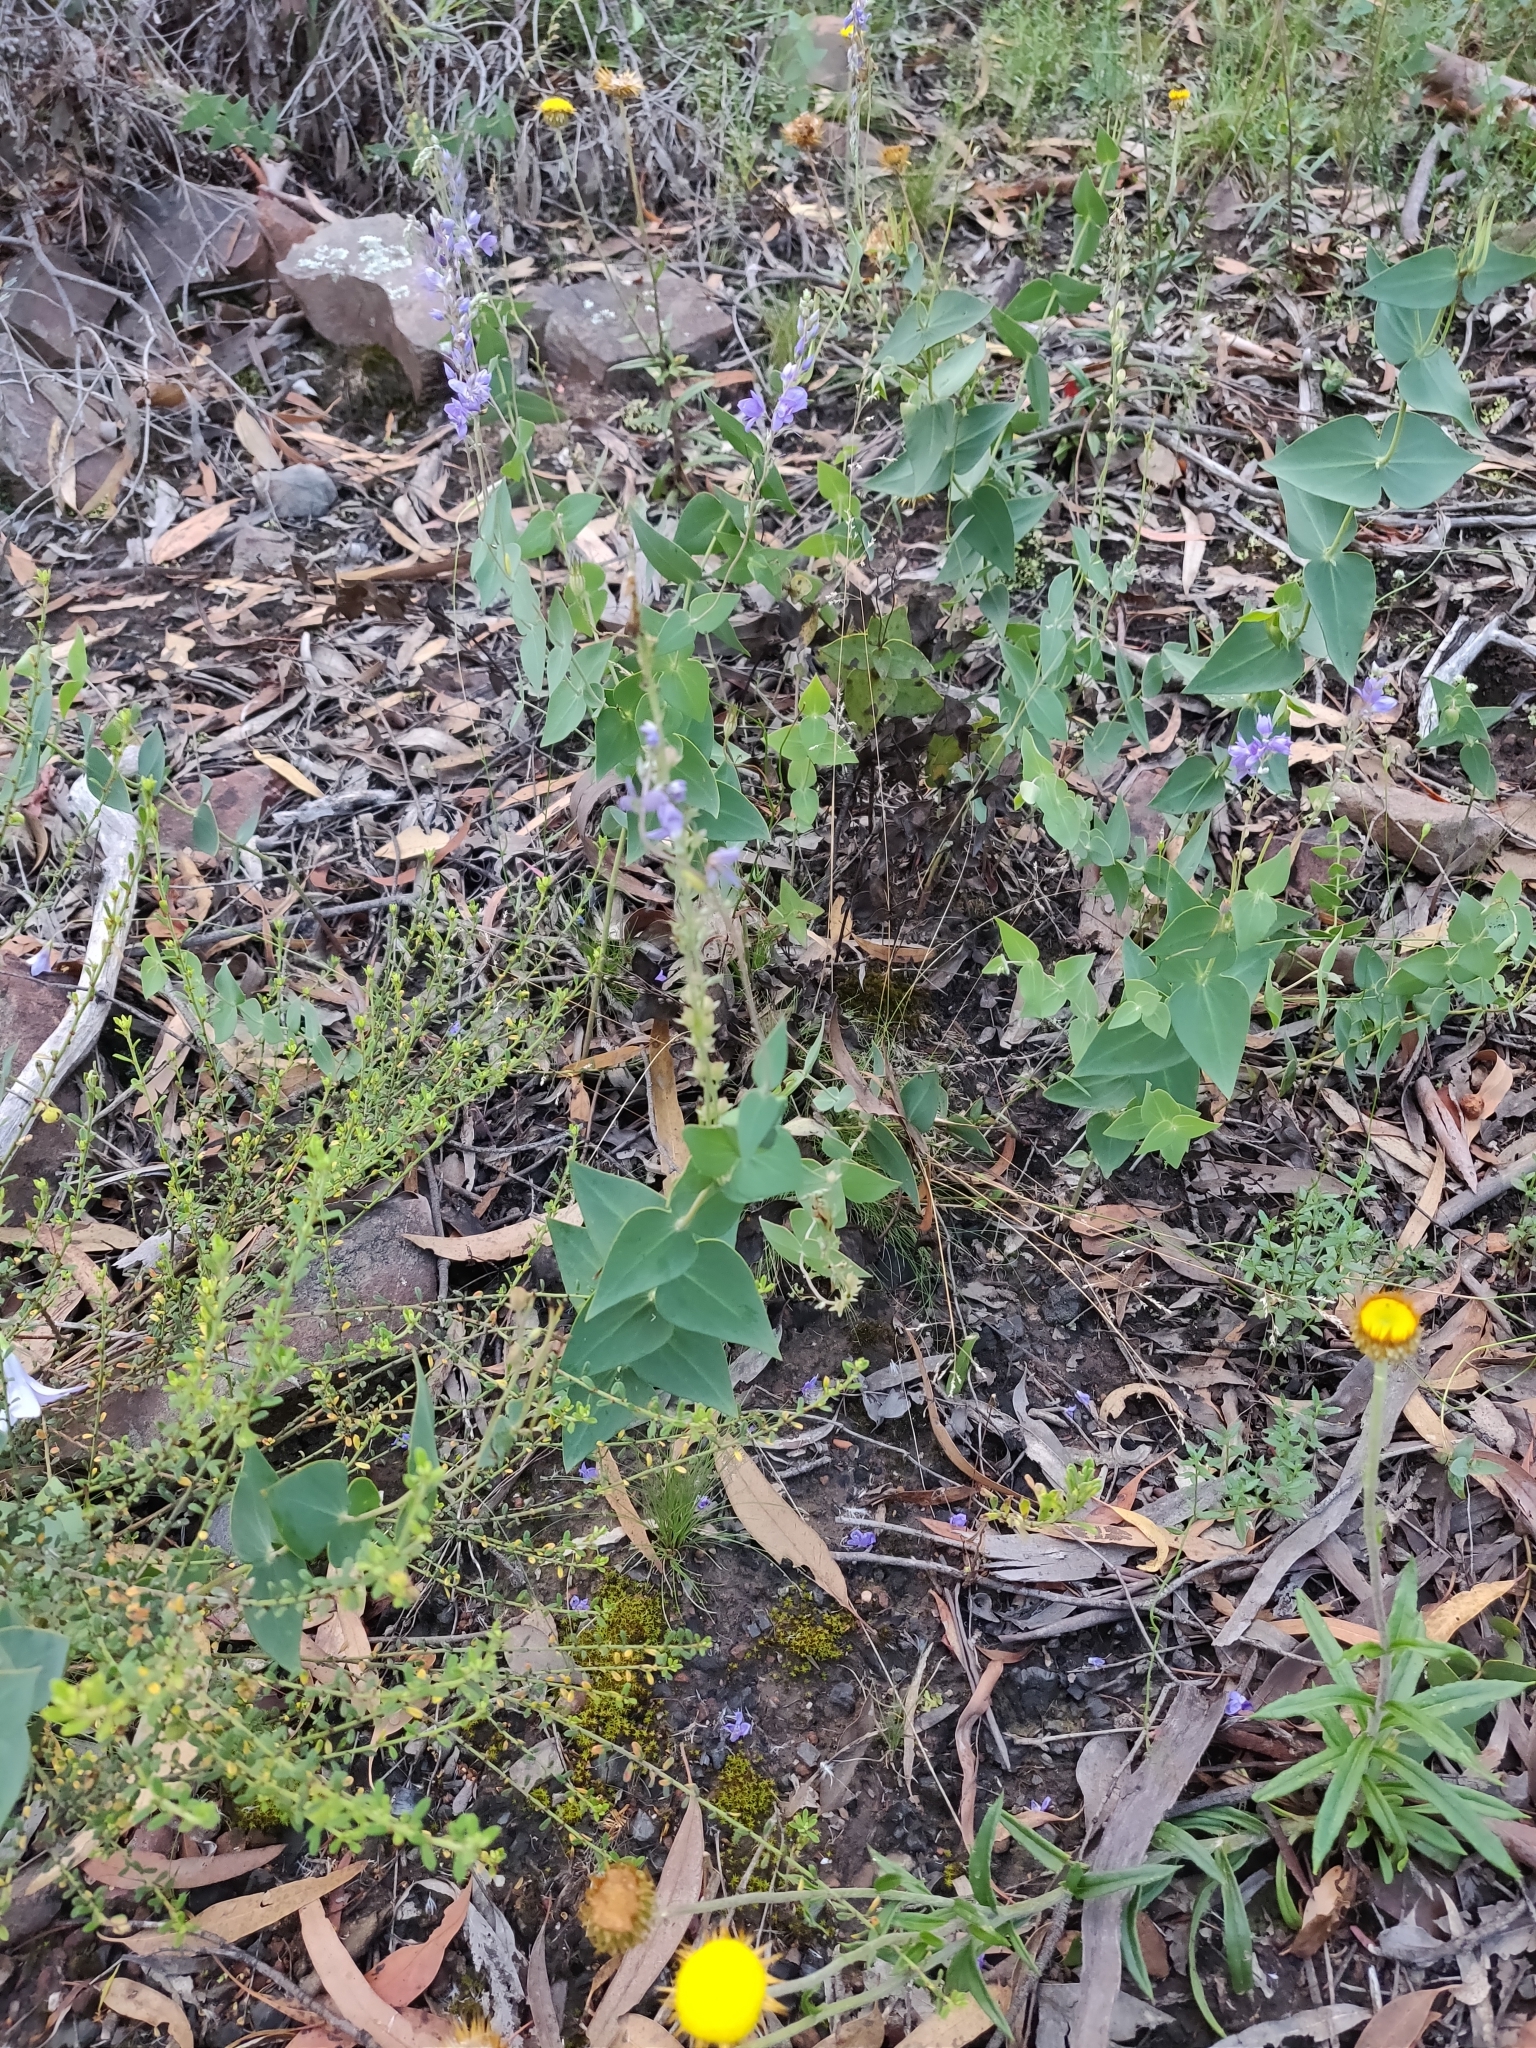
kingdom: Plantae
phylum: Tracheophyta
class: Magnoliopsida
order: Lamiales
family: Plantaginaceae
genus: Veronica
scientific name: Veronica perfoliata
